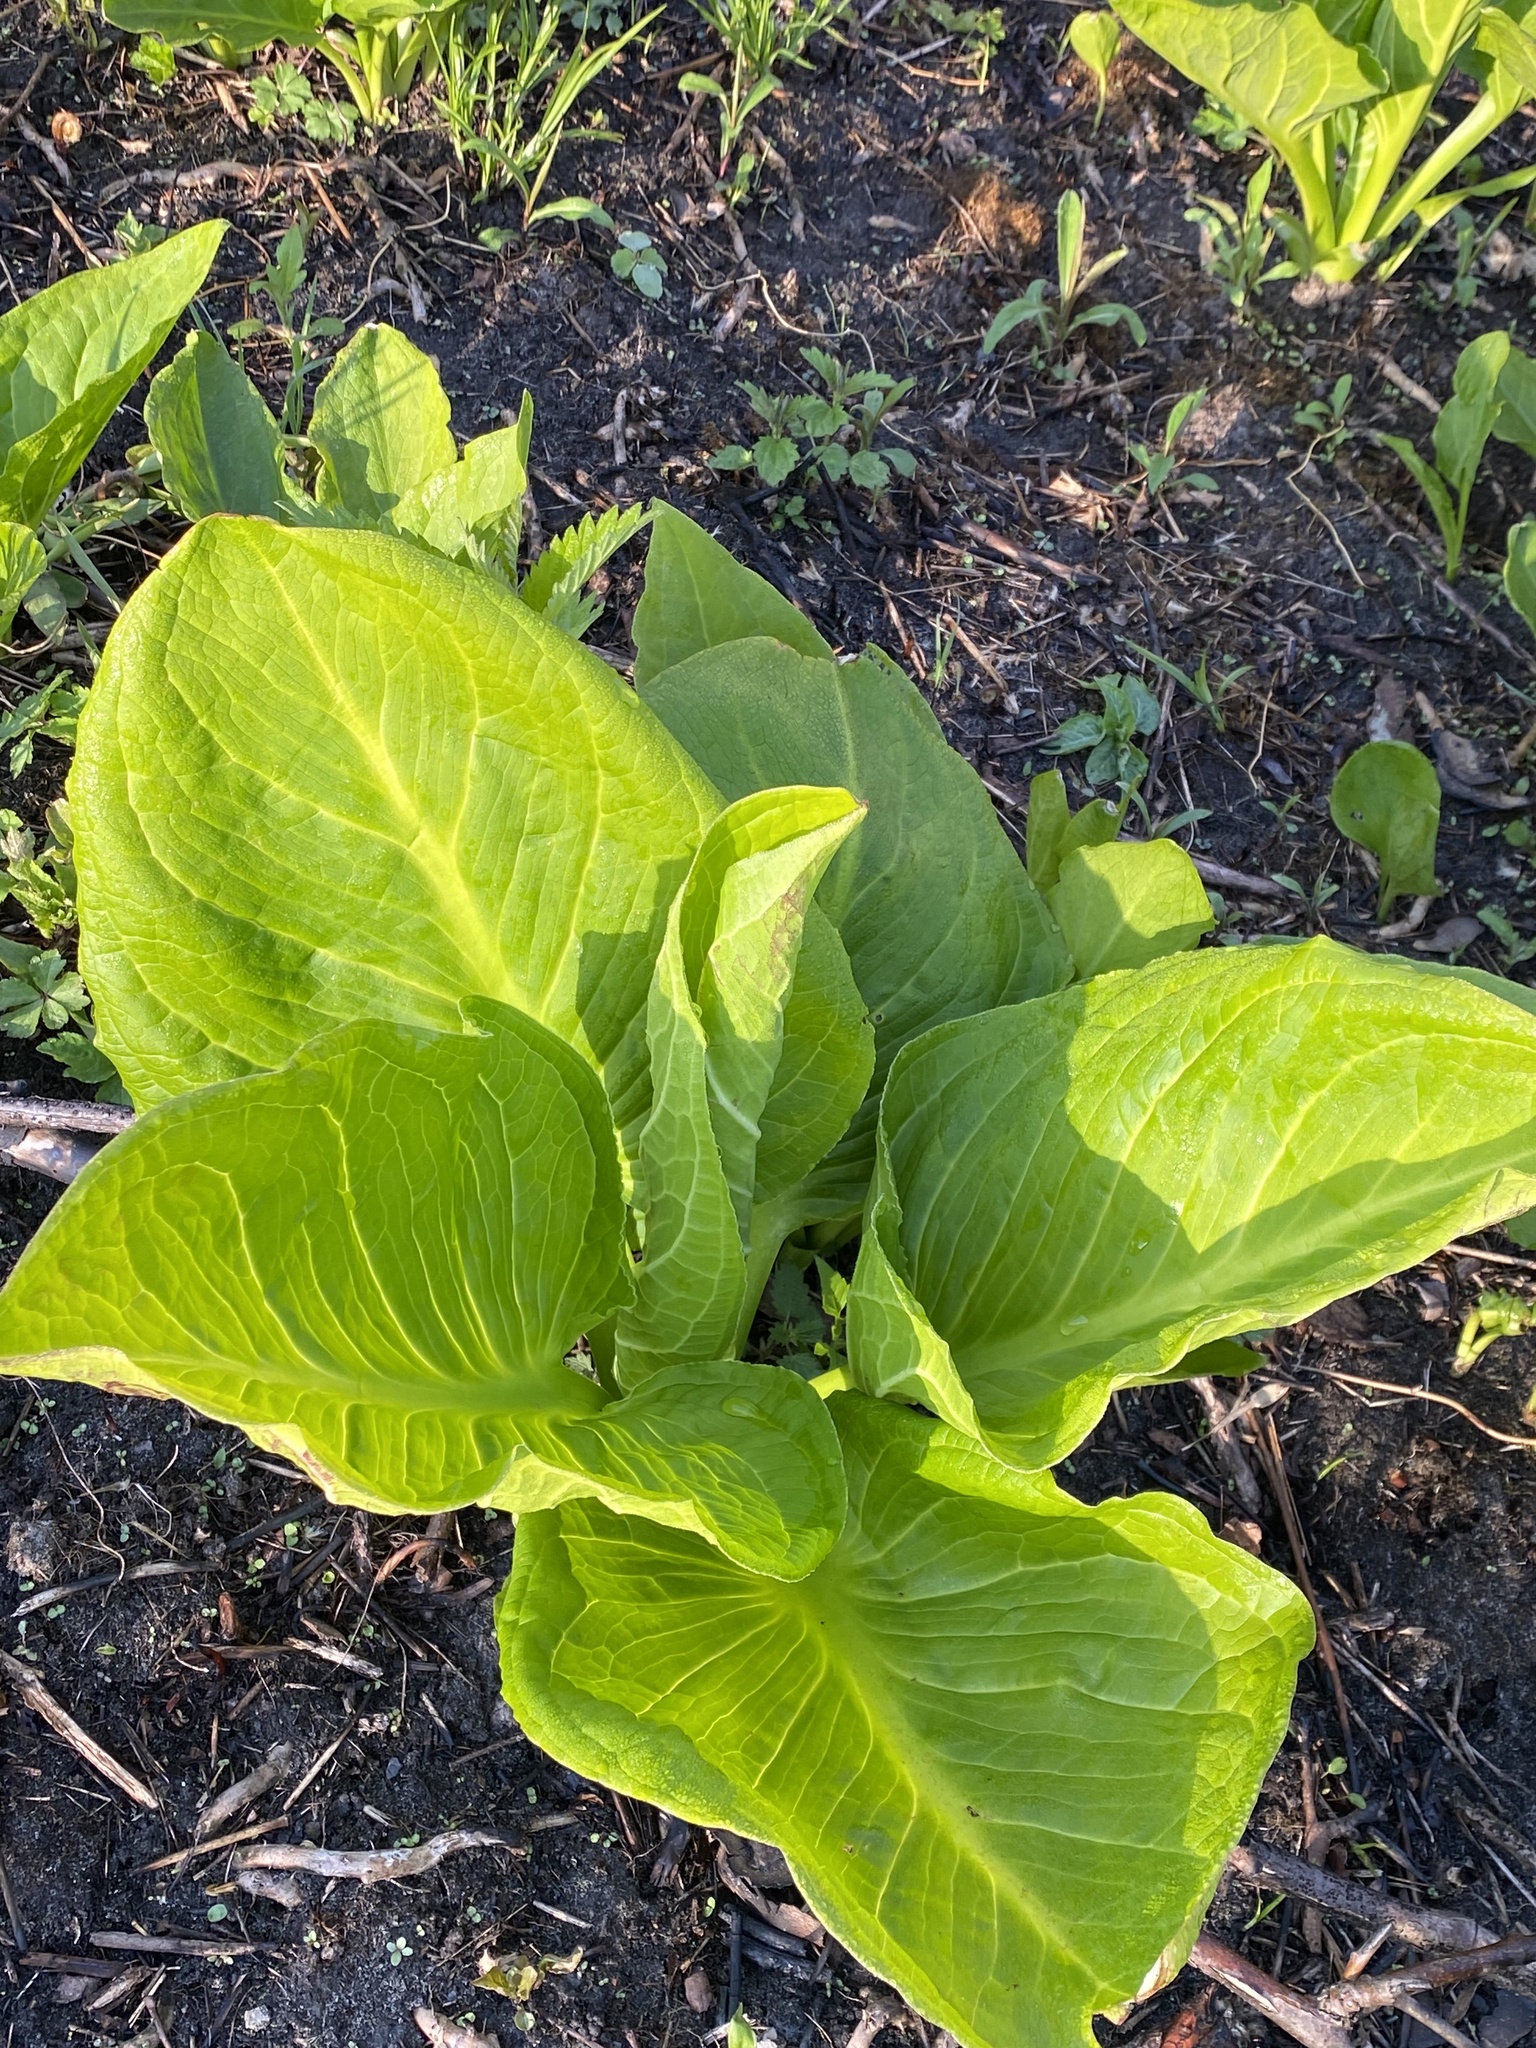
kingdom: Plantae
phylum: Tracheophyta
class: Liliopsida
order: Alismatales
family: Araceae
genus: Symplocarpus
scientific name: Symplocarpus foetidus
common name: Eastern skunk cabbage
